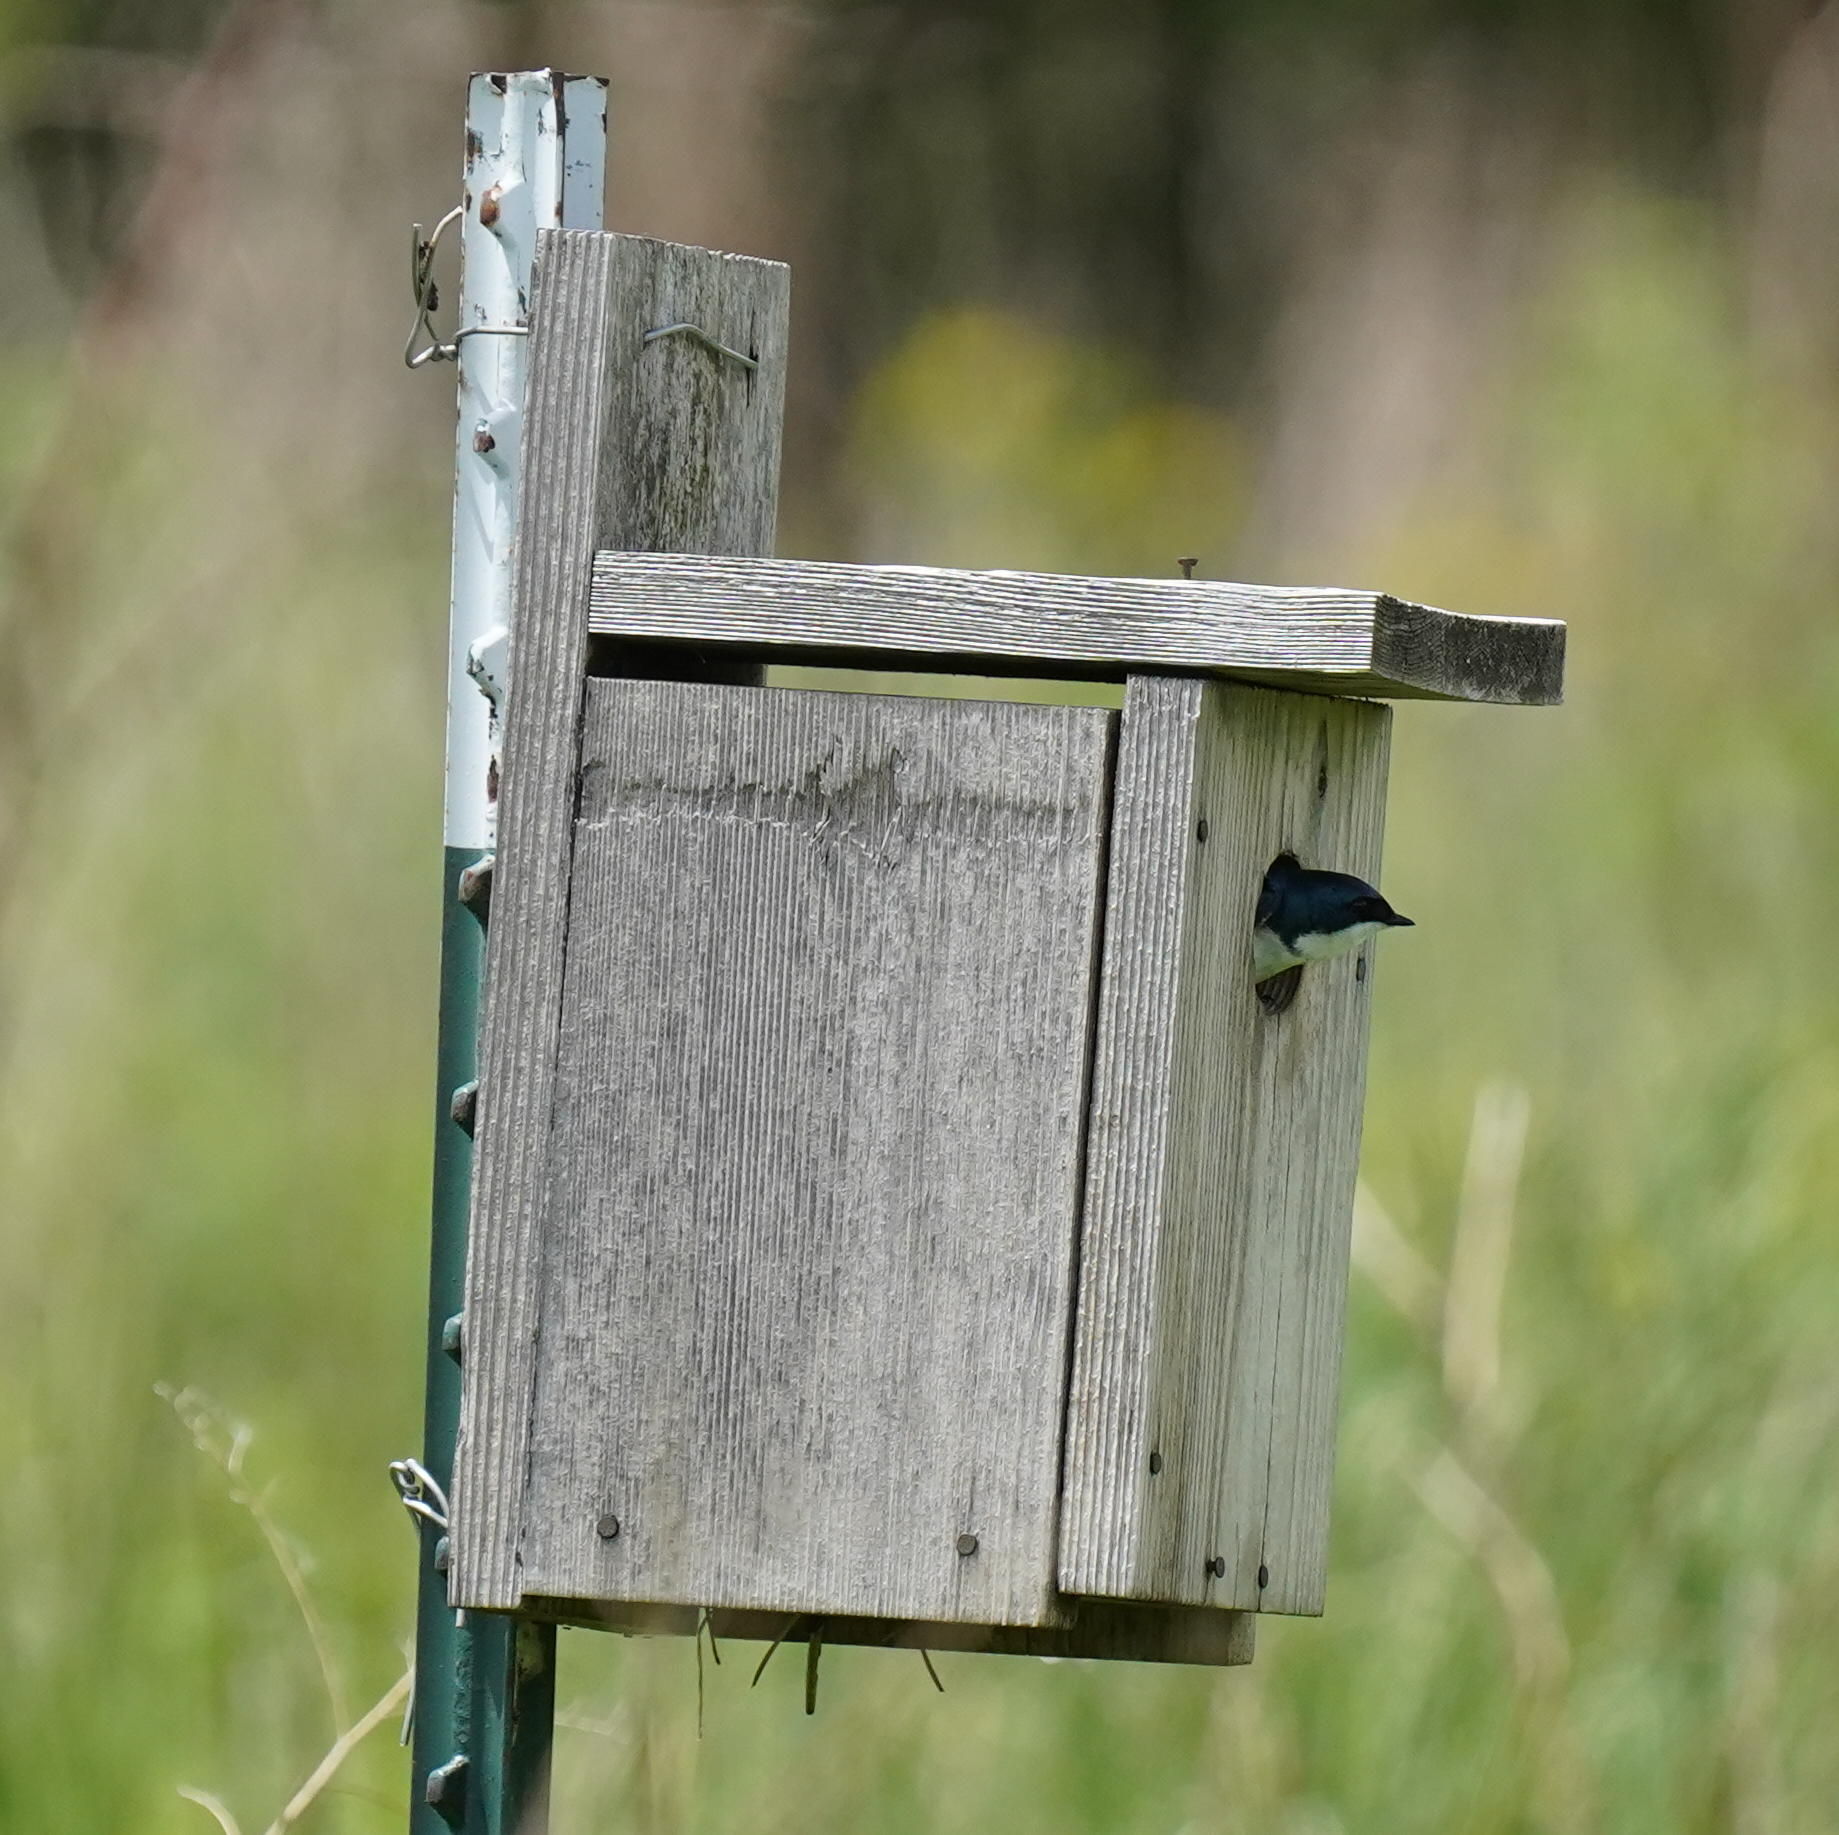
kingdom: Animalia
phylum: Chordata
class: Aves
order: Passeriformes
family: Hirundinidae
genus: Tachycineta
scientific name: Tachycineta bicolor
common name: Tree swallow
